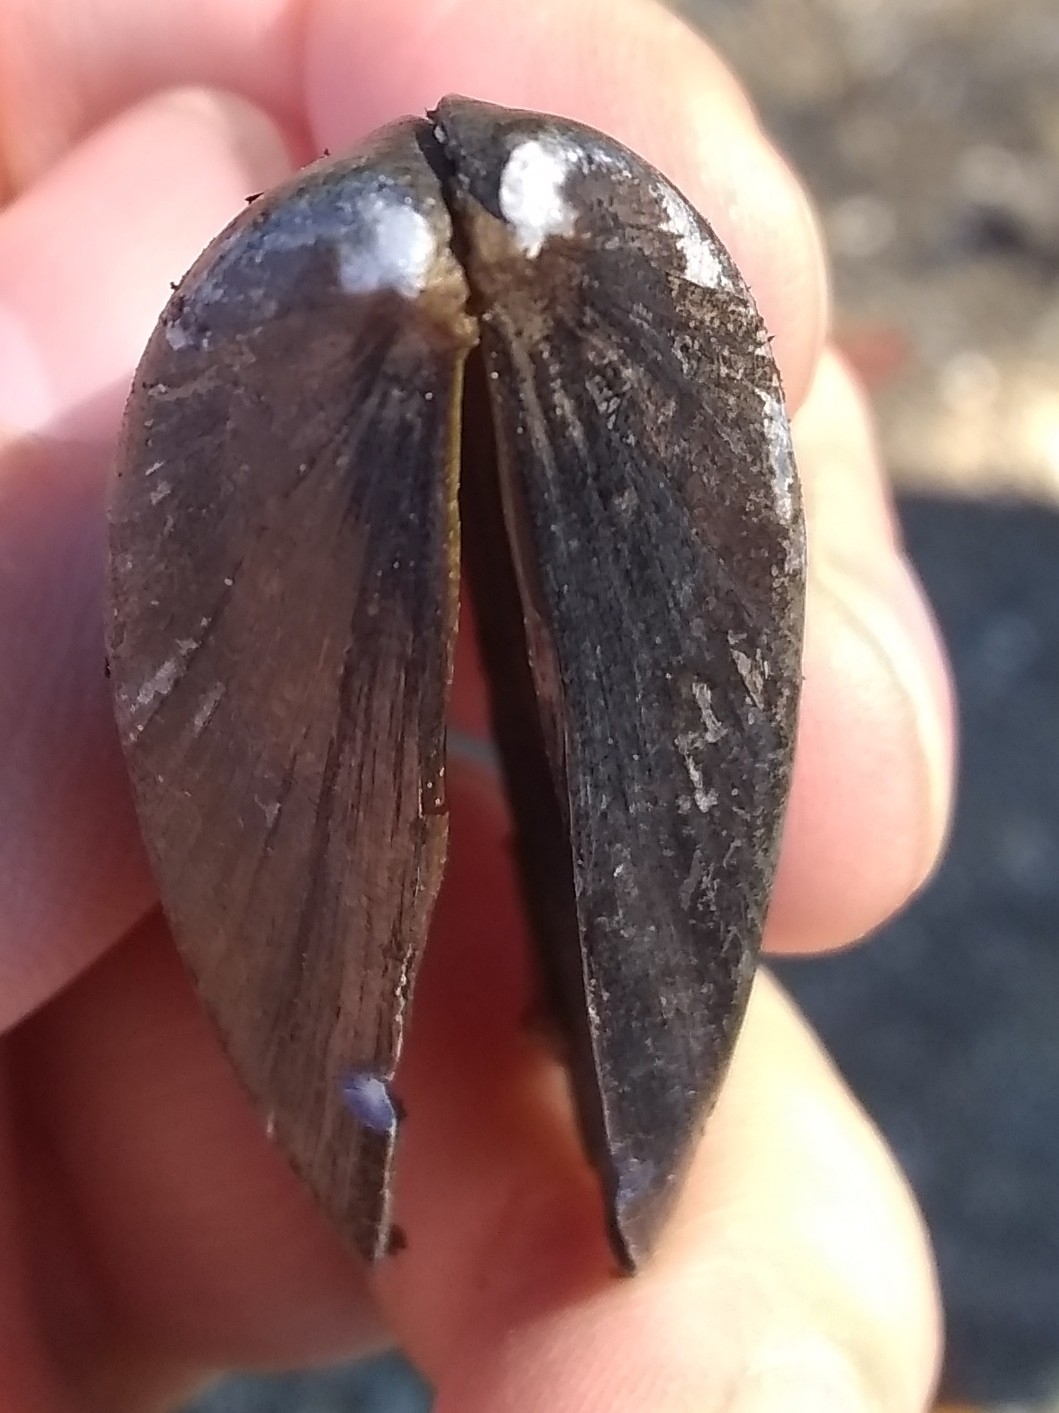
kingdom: Animalia
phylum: Mollusca
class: Bivalvia
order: Mytilida
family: Mytilidae
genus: Mytilus
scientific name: Mytilus
